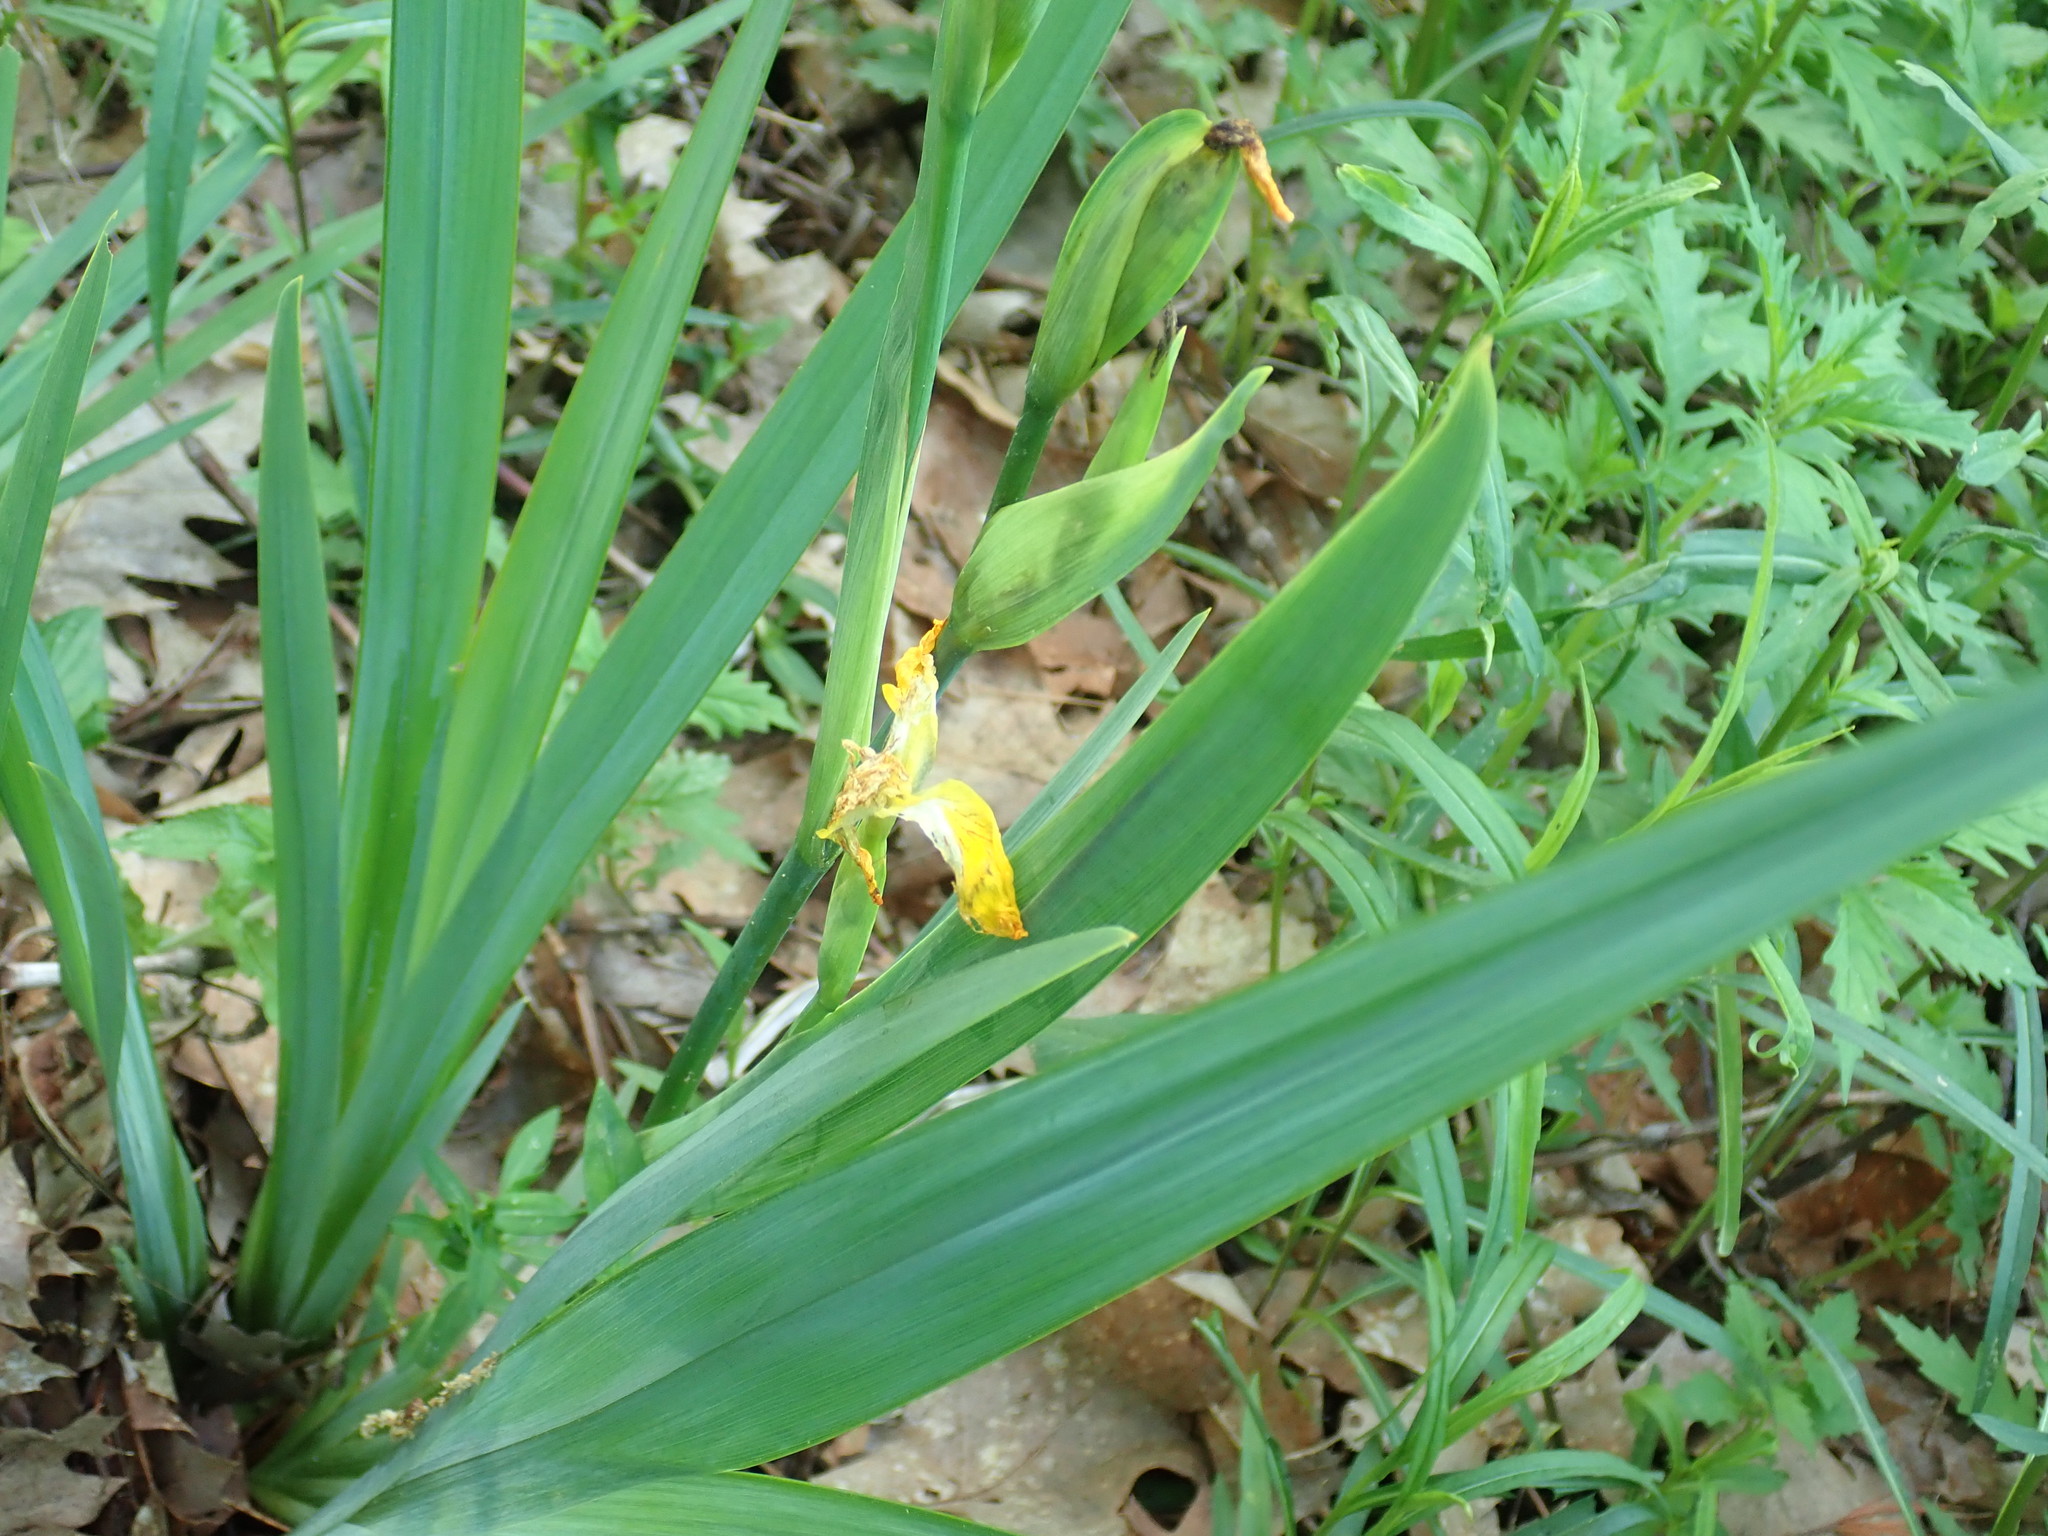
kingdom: Plantae
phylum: Tracheophyta
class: Liliopsida
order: Asparagales
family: Iridaceae
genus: Iris
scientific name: Iris pseudacorus
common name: Yellow flag
